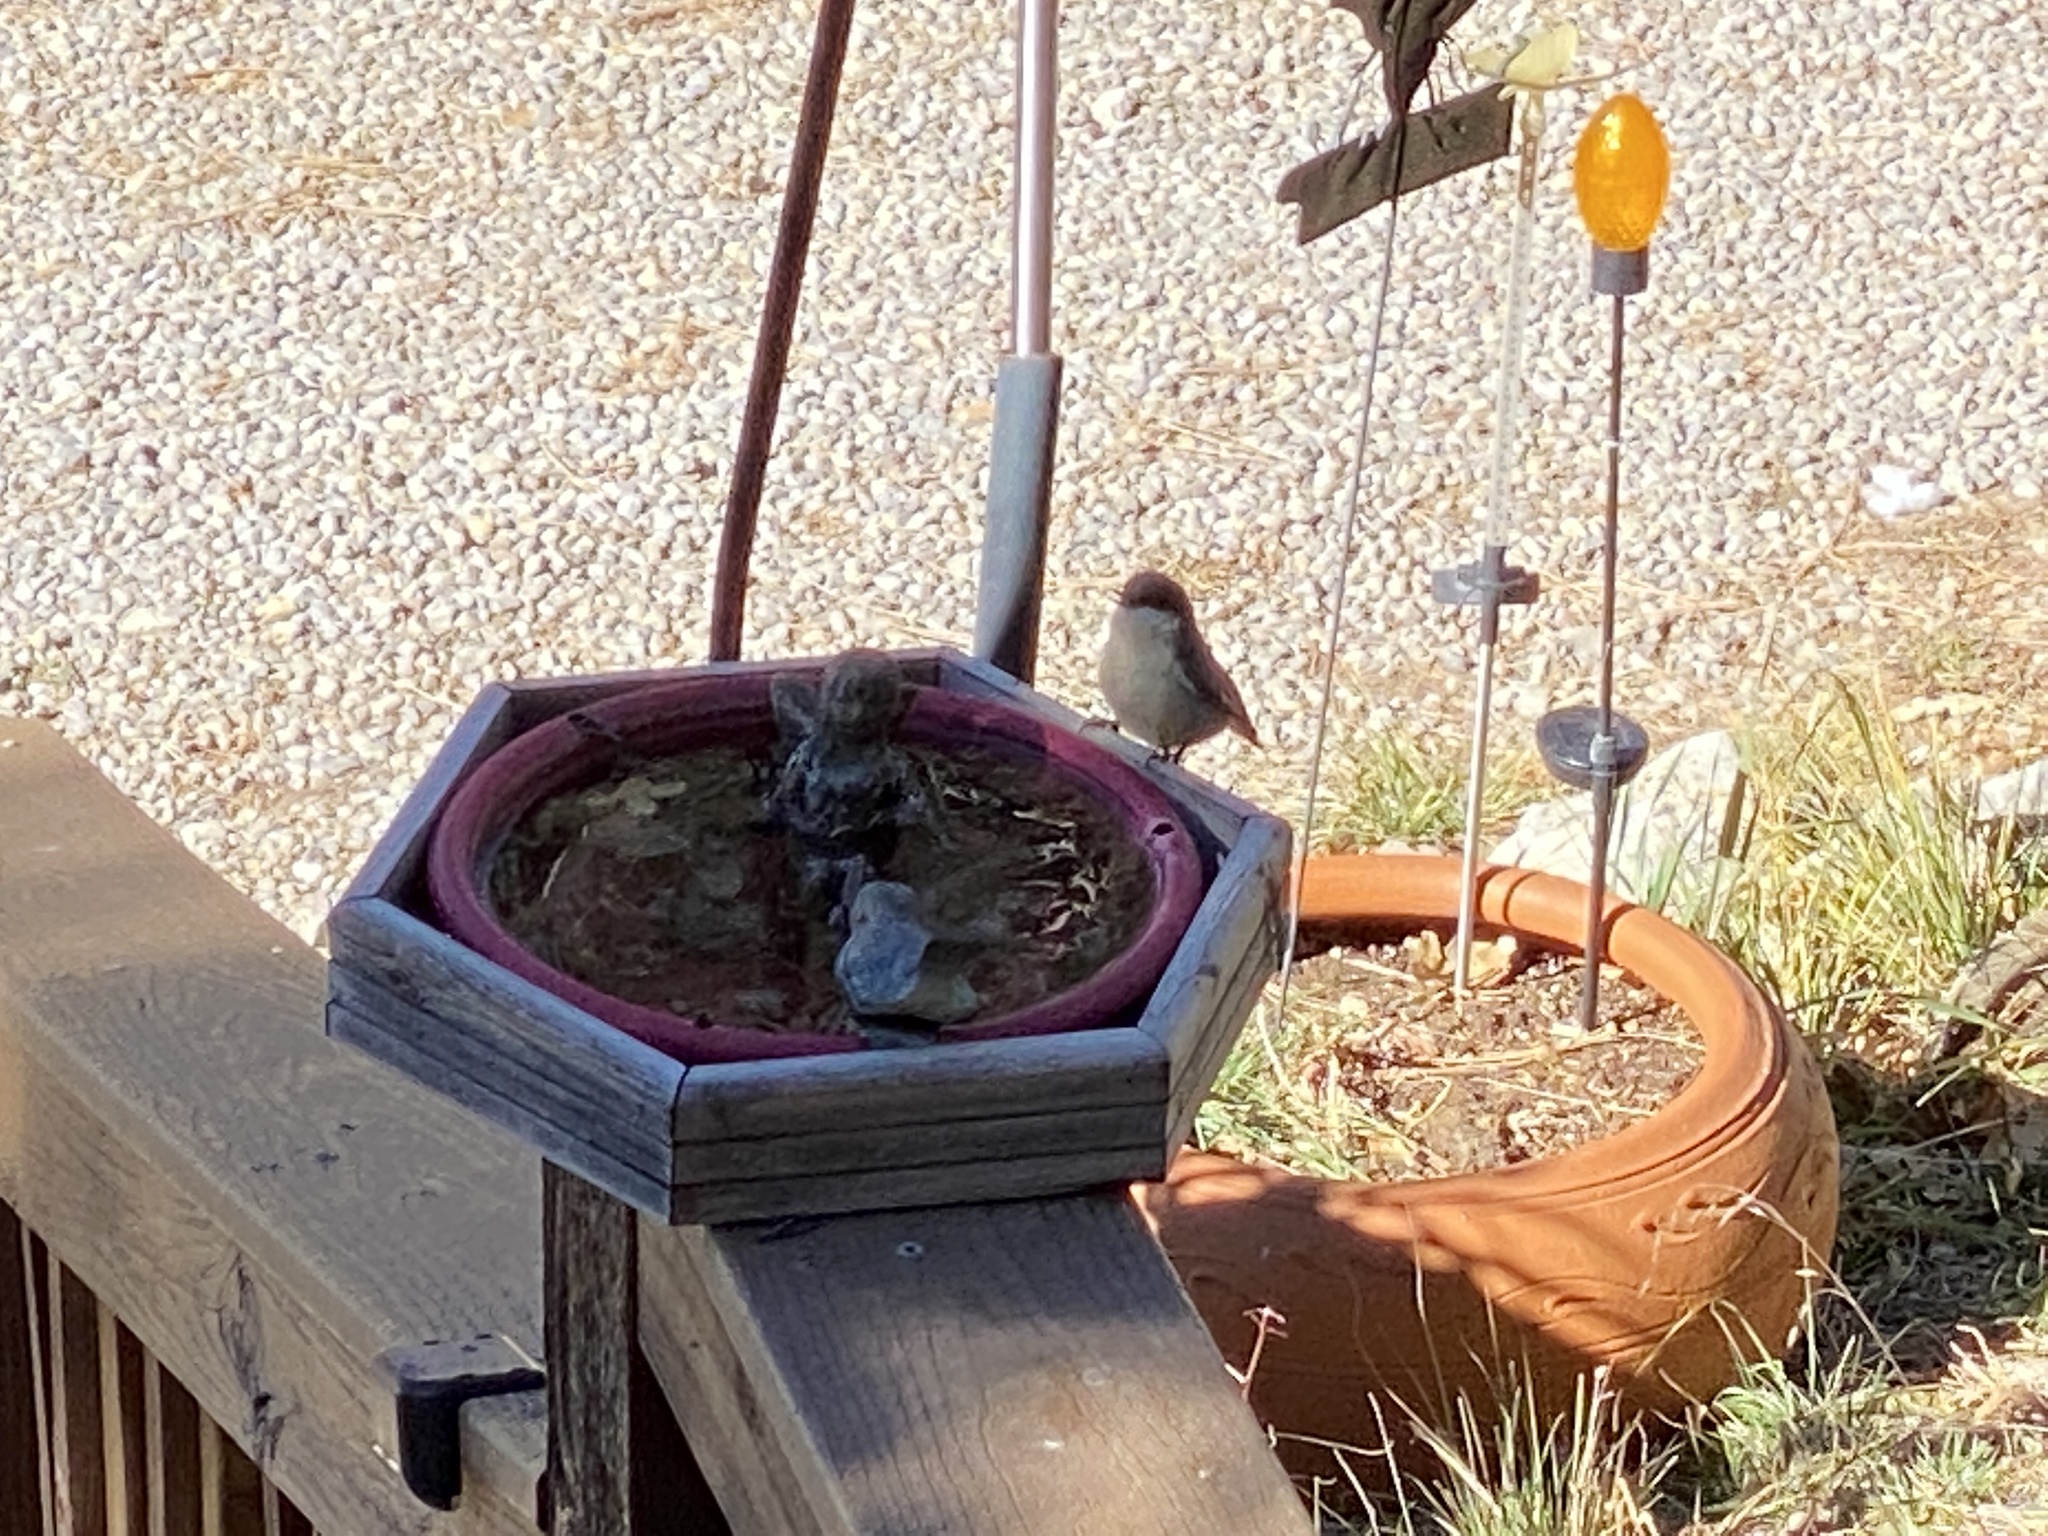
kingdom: Animalia
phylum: Chordata
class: Aves
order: Passeriformes
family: Sittidae
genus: Sitta
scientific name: Sitta pygmaea
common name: Pygmy nuthatch
